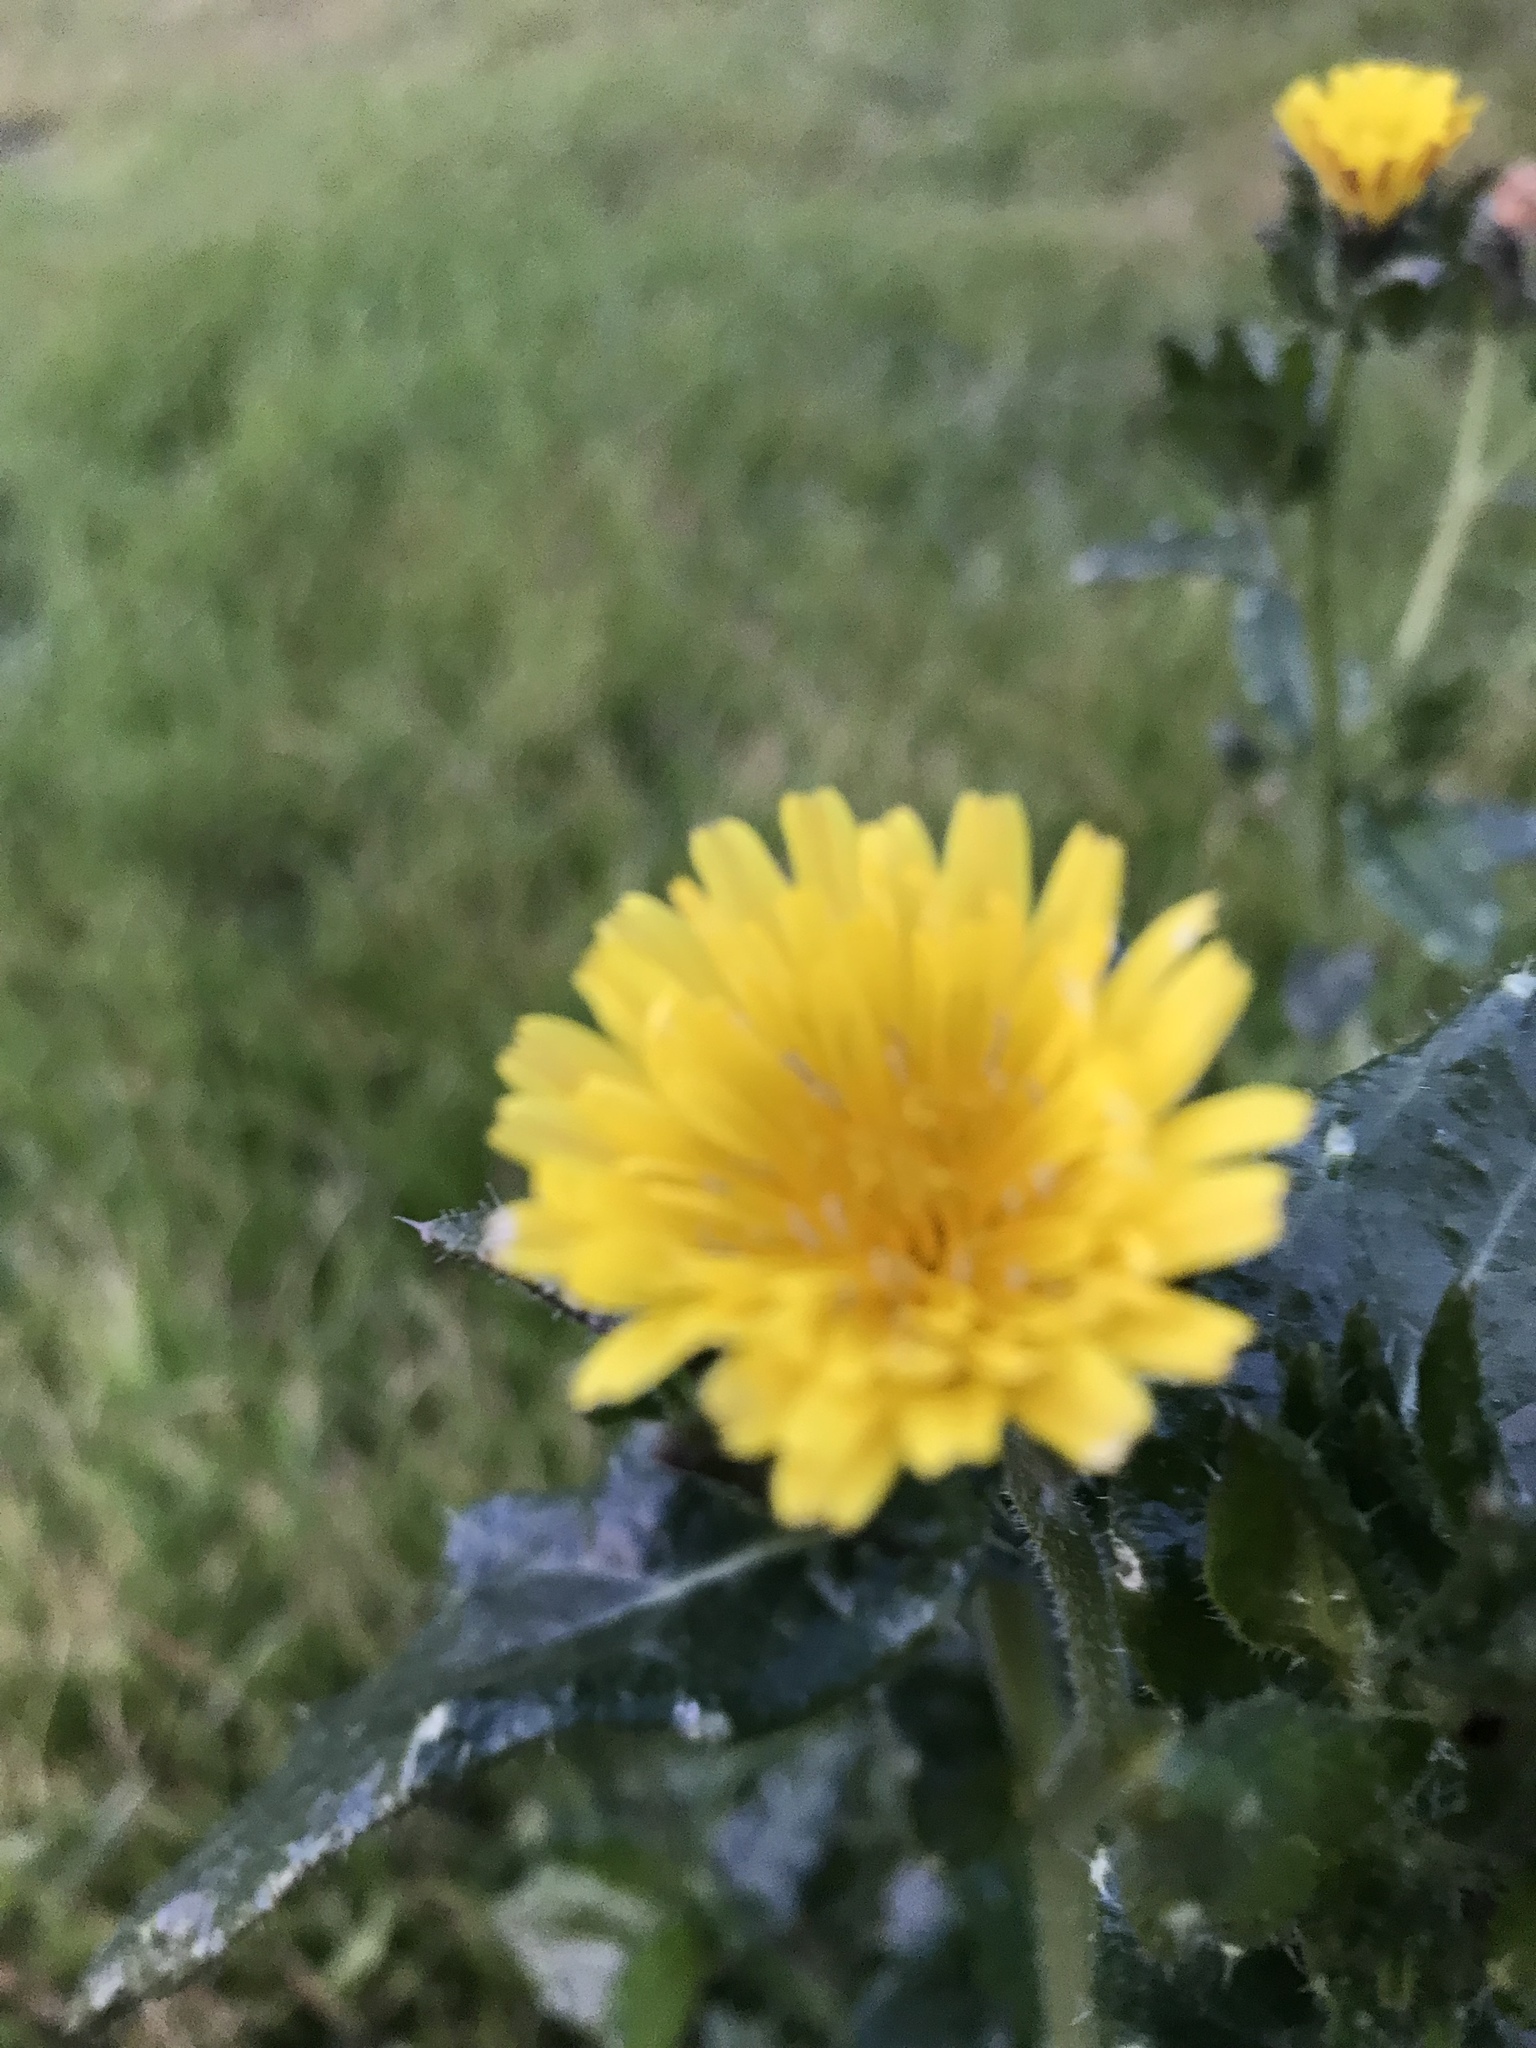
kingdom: Plantae
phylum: Tracheophyta
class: Magnoliopsida
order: Asterales
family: Asteraceae
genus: Helminthotheca
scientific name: Helminthotheca echioides
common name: Ox-tongue
